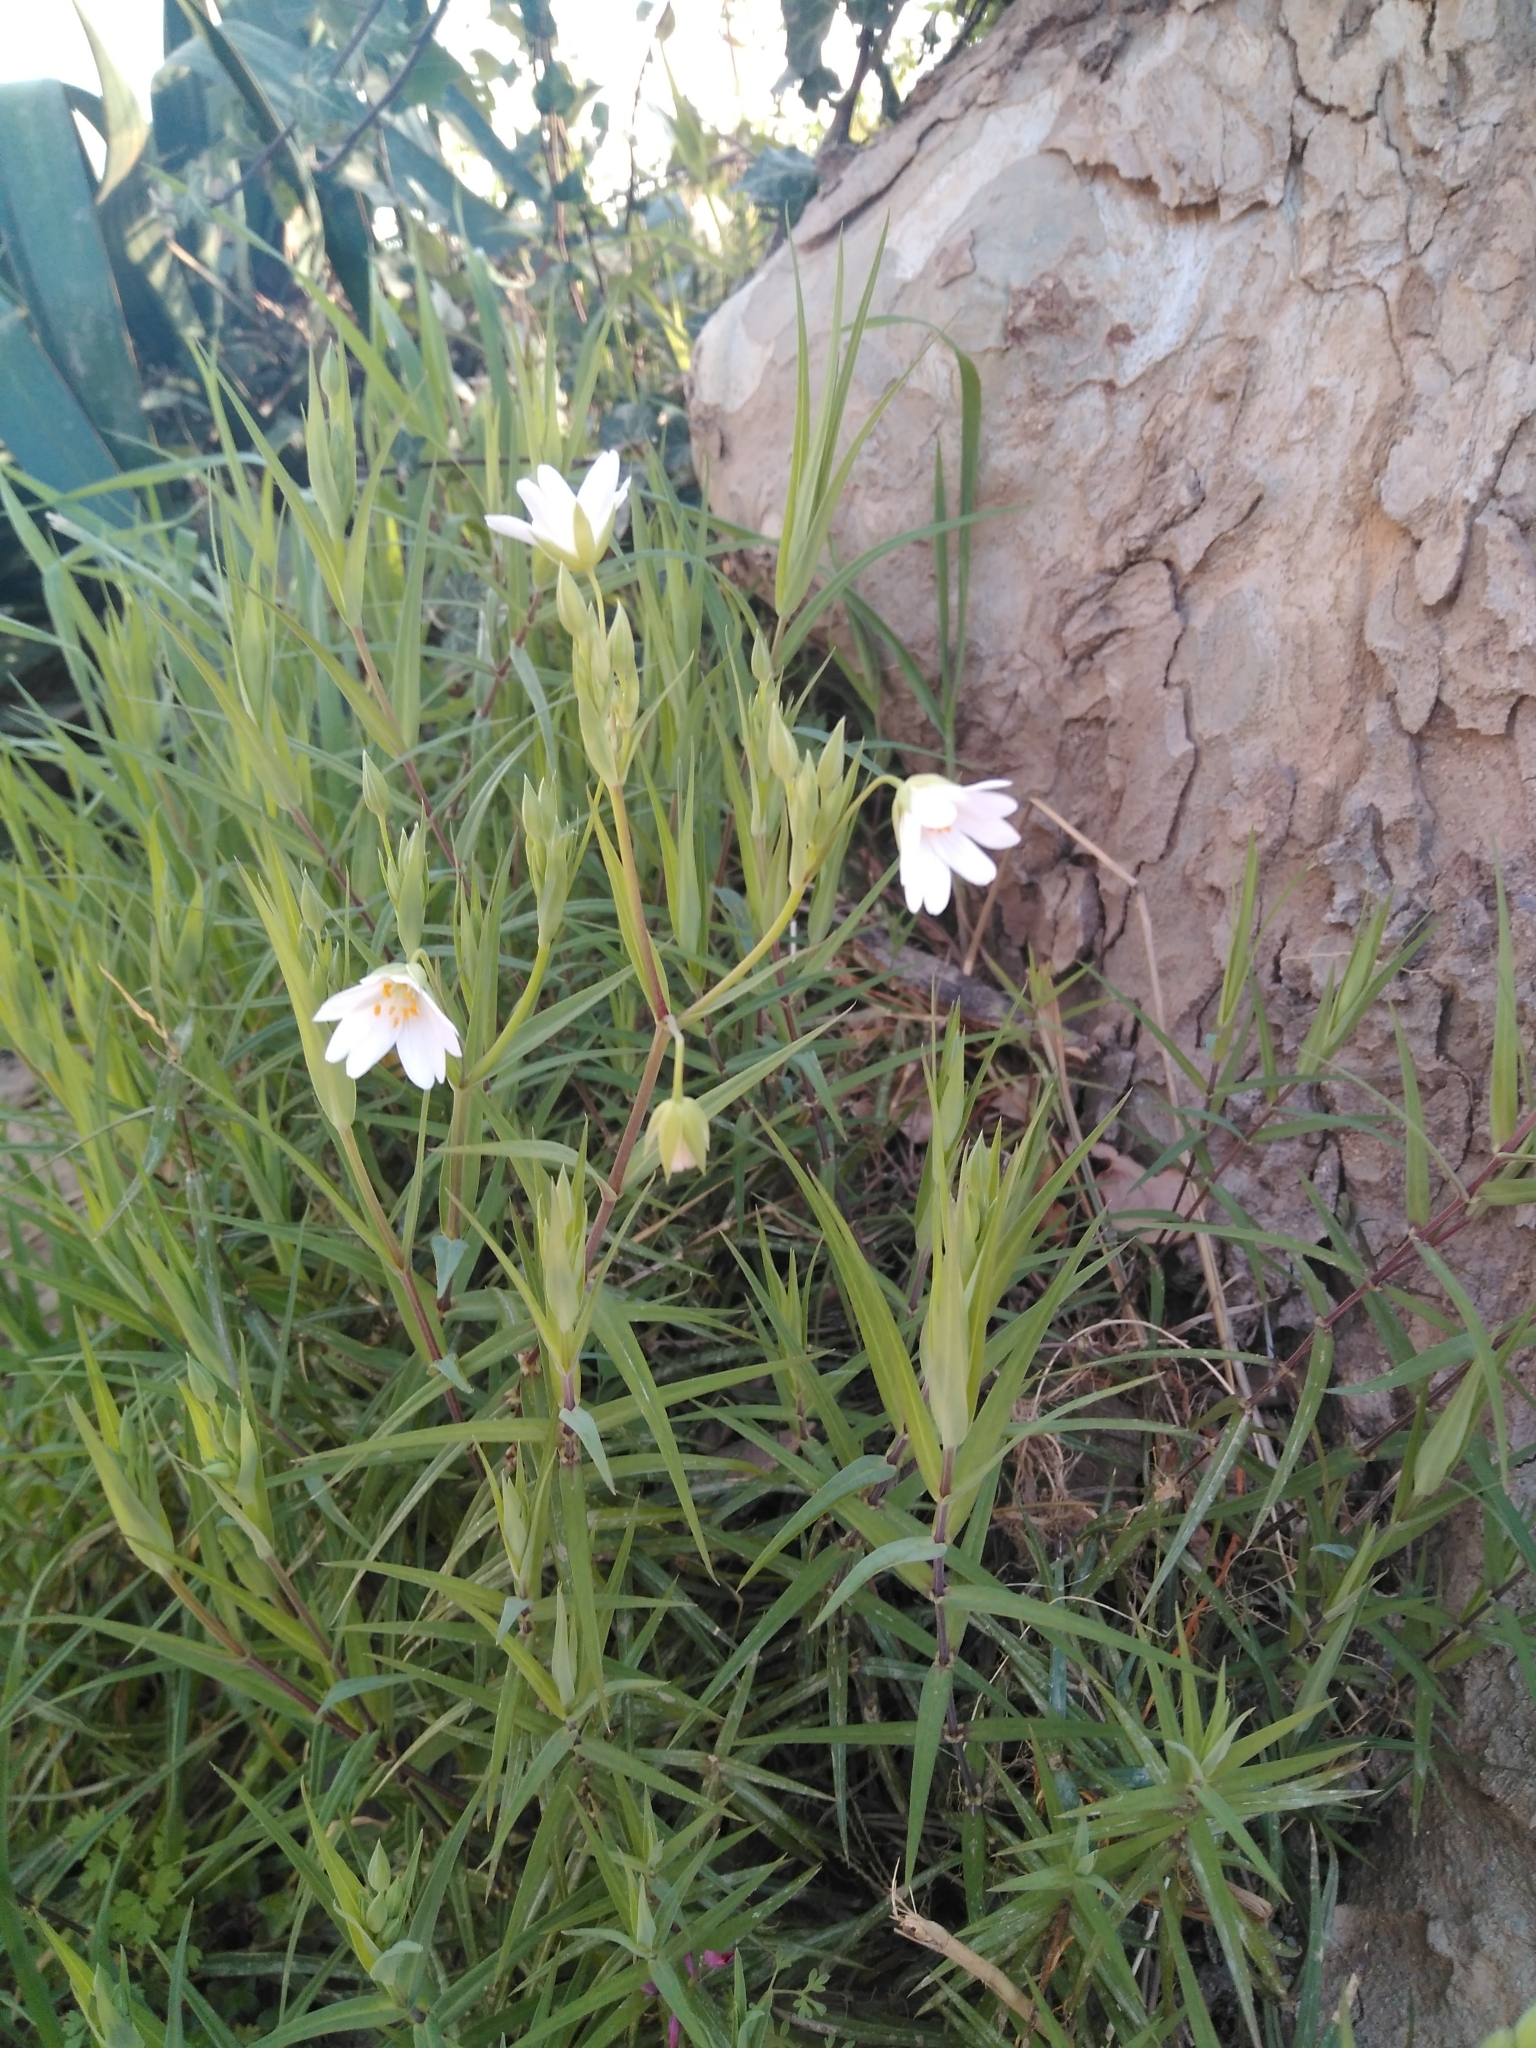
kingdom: Plantae
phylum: Tracheophyta
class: Magnoliopsida
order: Caryophyllales
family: Caryophyllaceae
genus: Rabelera
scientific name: Rabelera holostea
